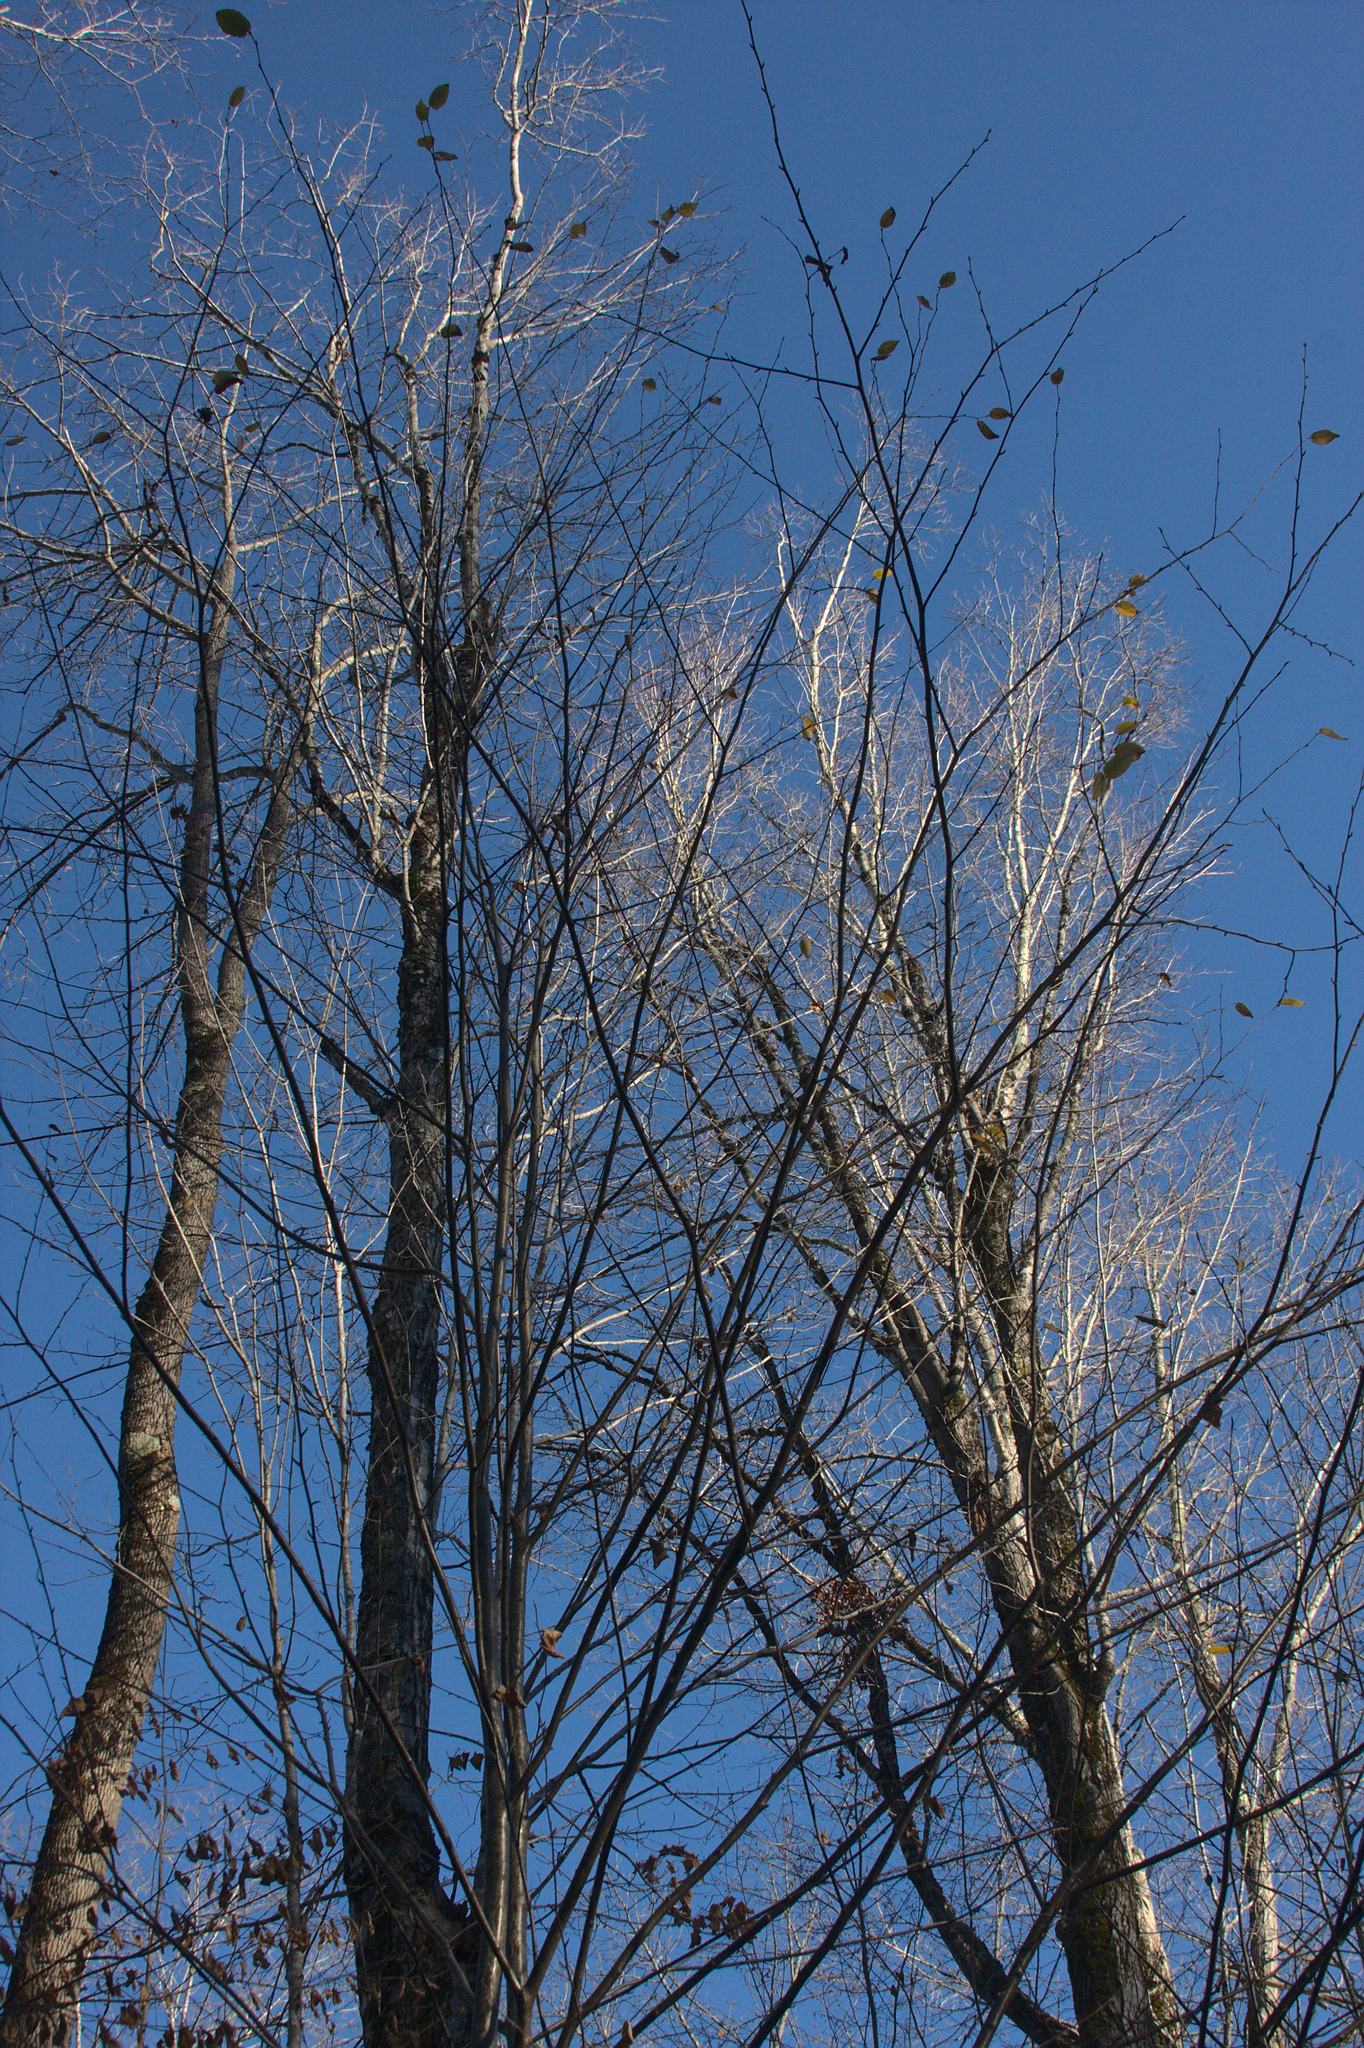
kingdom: Plantae
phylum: Tracheophyta
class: Magnoliopsida
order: Fagales
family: Betulaceae
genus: Betula
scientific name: Betula alleghaniensis
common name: Yellow birch
